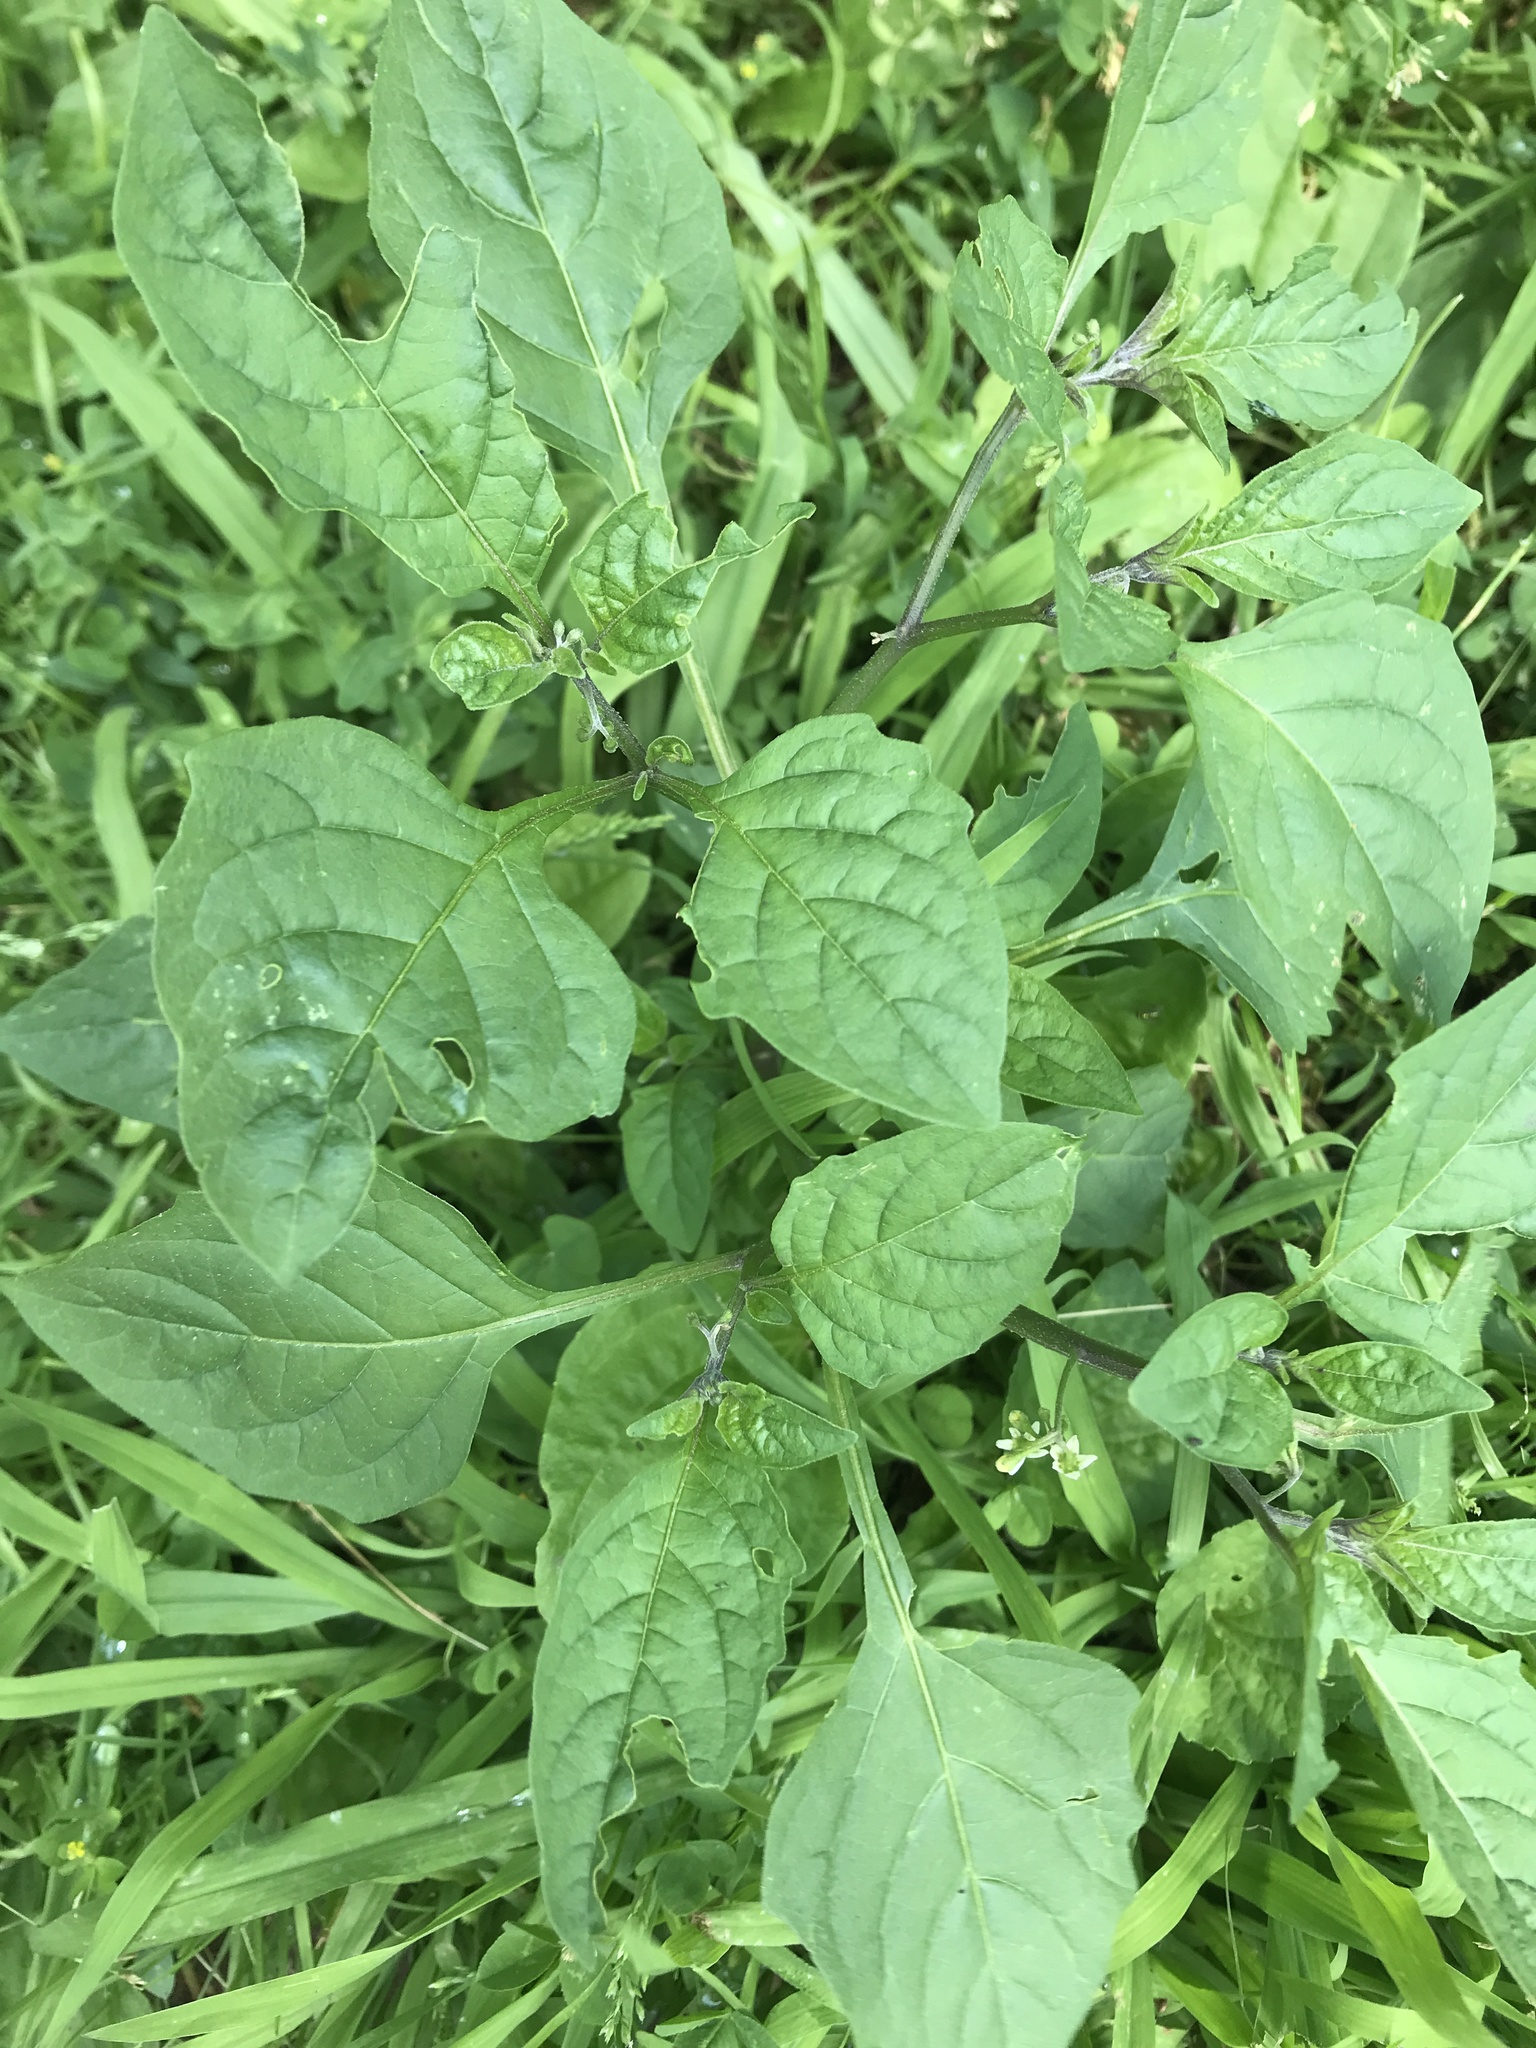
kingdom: Plantae
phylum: Tracheophyta
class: Magnoliopsida
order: Solanales
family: Solanaceae
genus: Solanum
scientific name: Solanum emulans
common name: Eastern black nightshade
